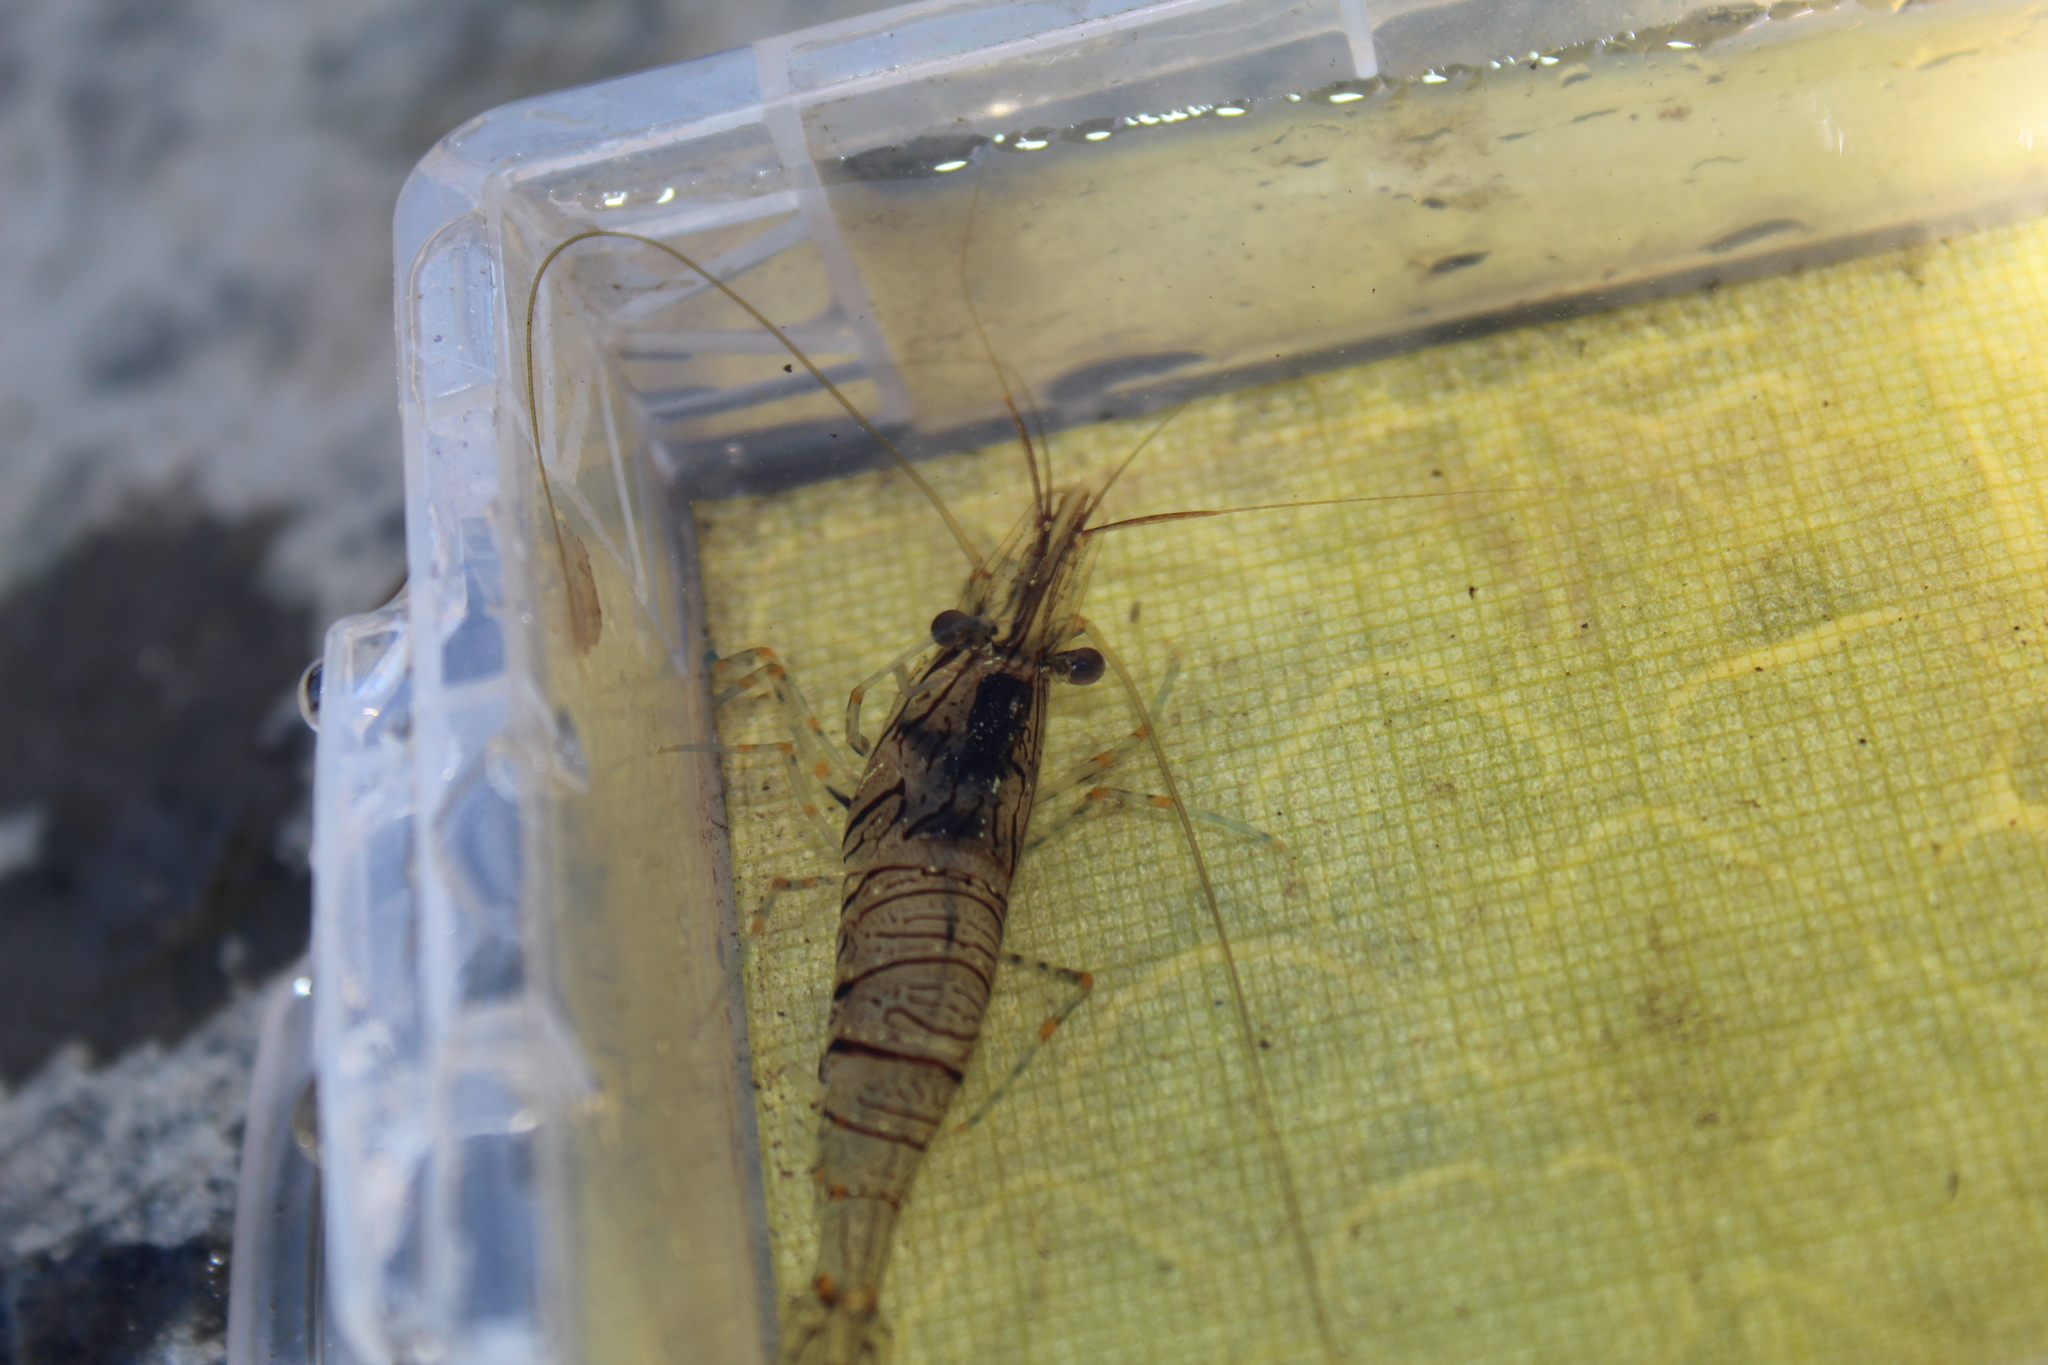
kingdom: Animalia
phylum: Arthropoda
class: Malacostraca
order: Decapoda
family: Palaemonidae
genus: Palaemon
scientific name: Palaemon elegans
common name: Grass prawm
